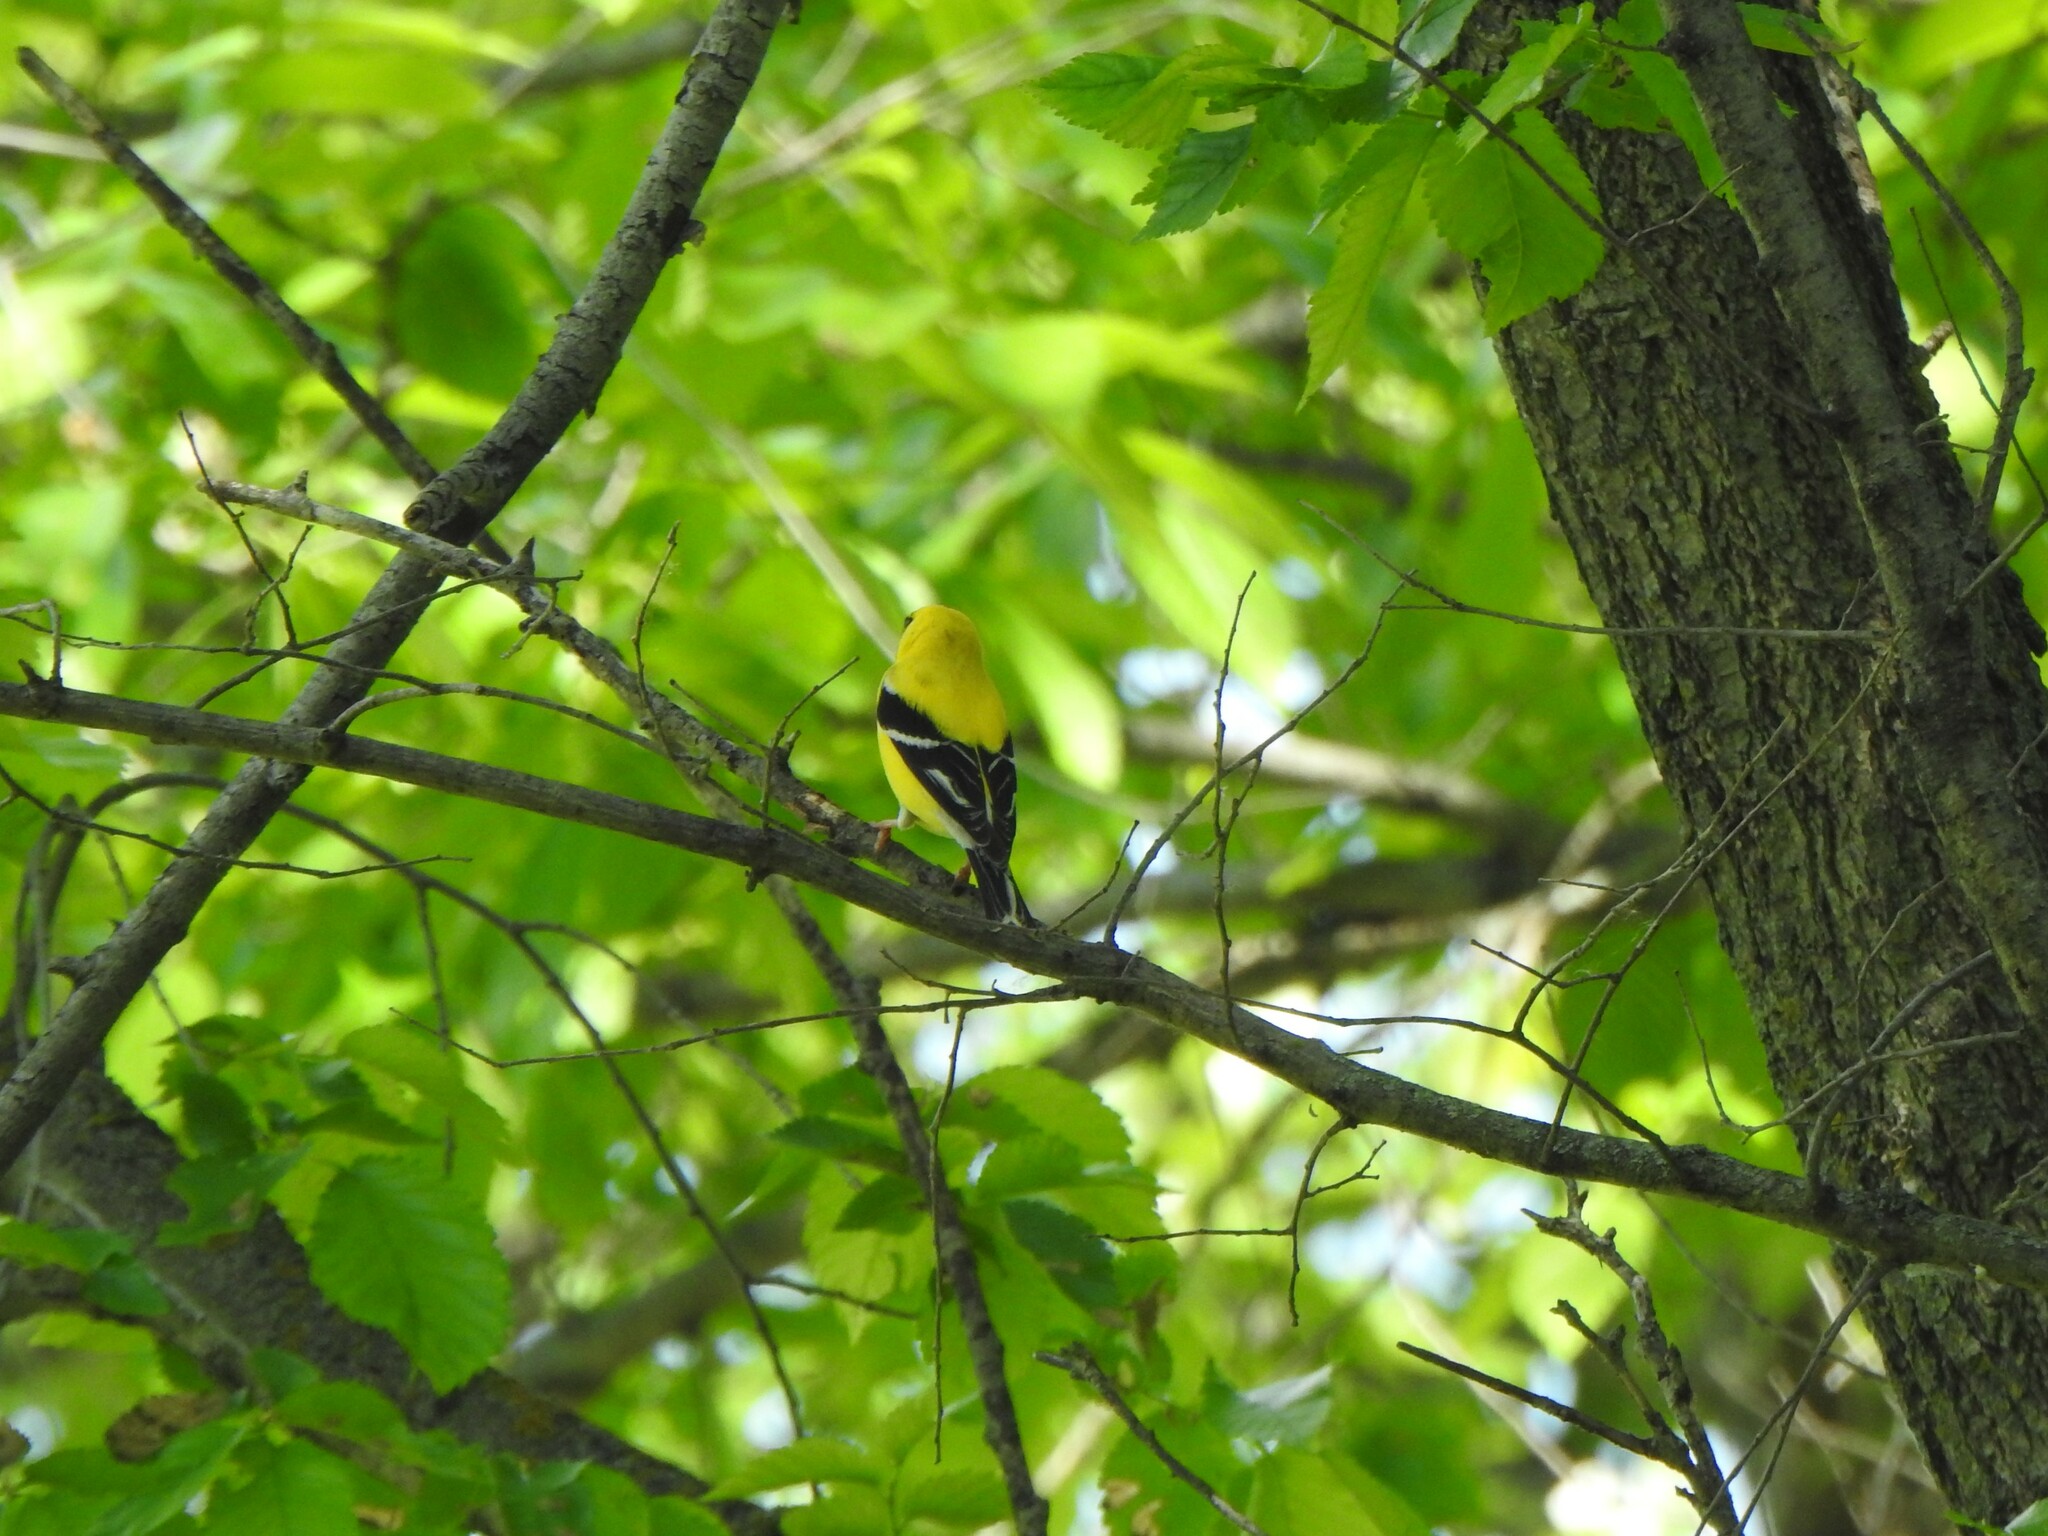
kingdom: Animalia
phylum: Chordata
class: Aves
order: Passeriformes
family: Fringillidae
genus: Spinus
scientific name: Spinus tristis
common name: American goldfinch
